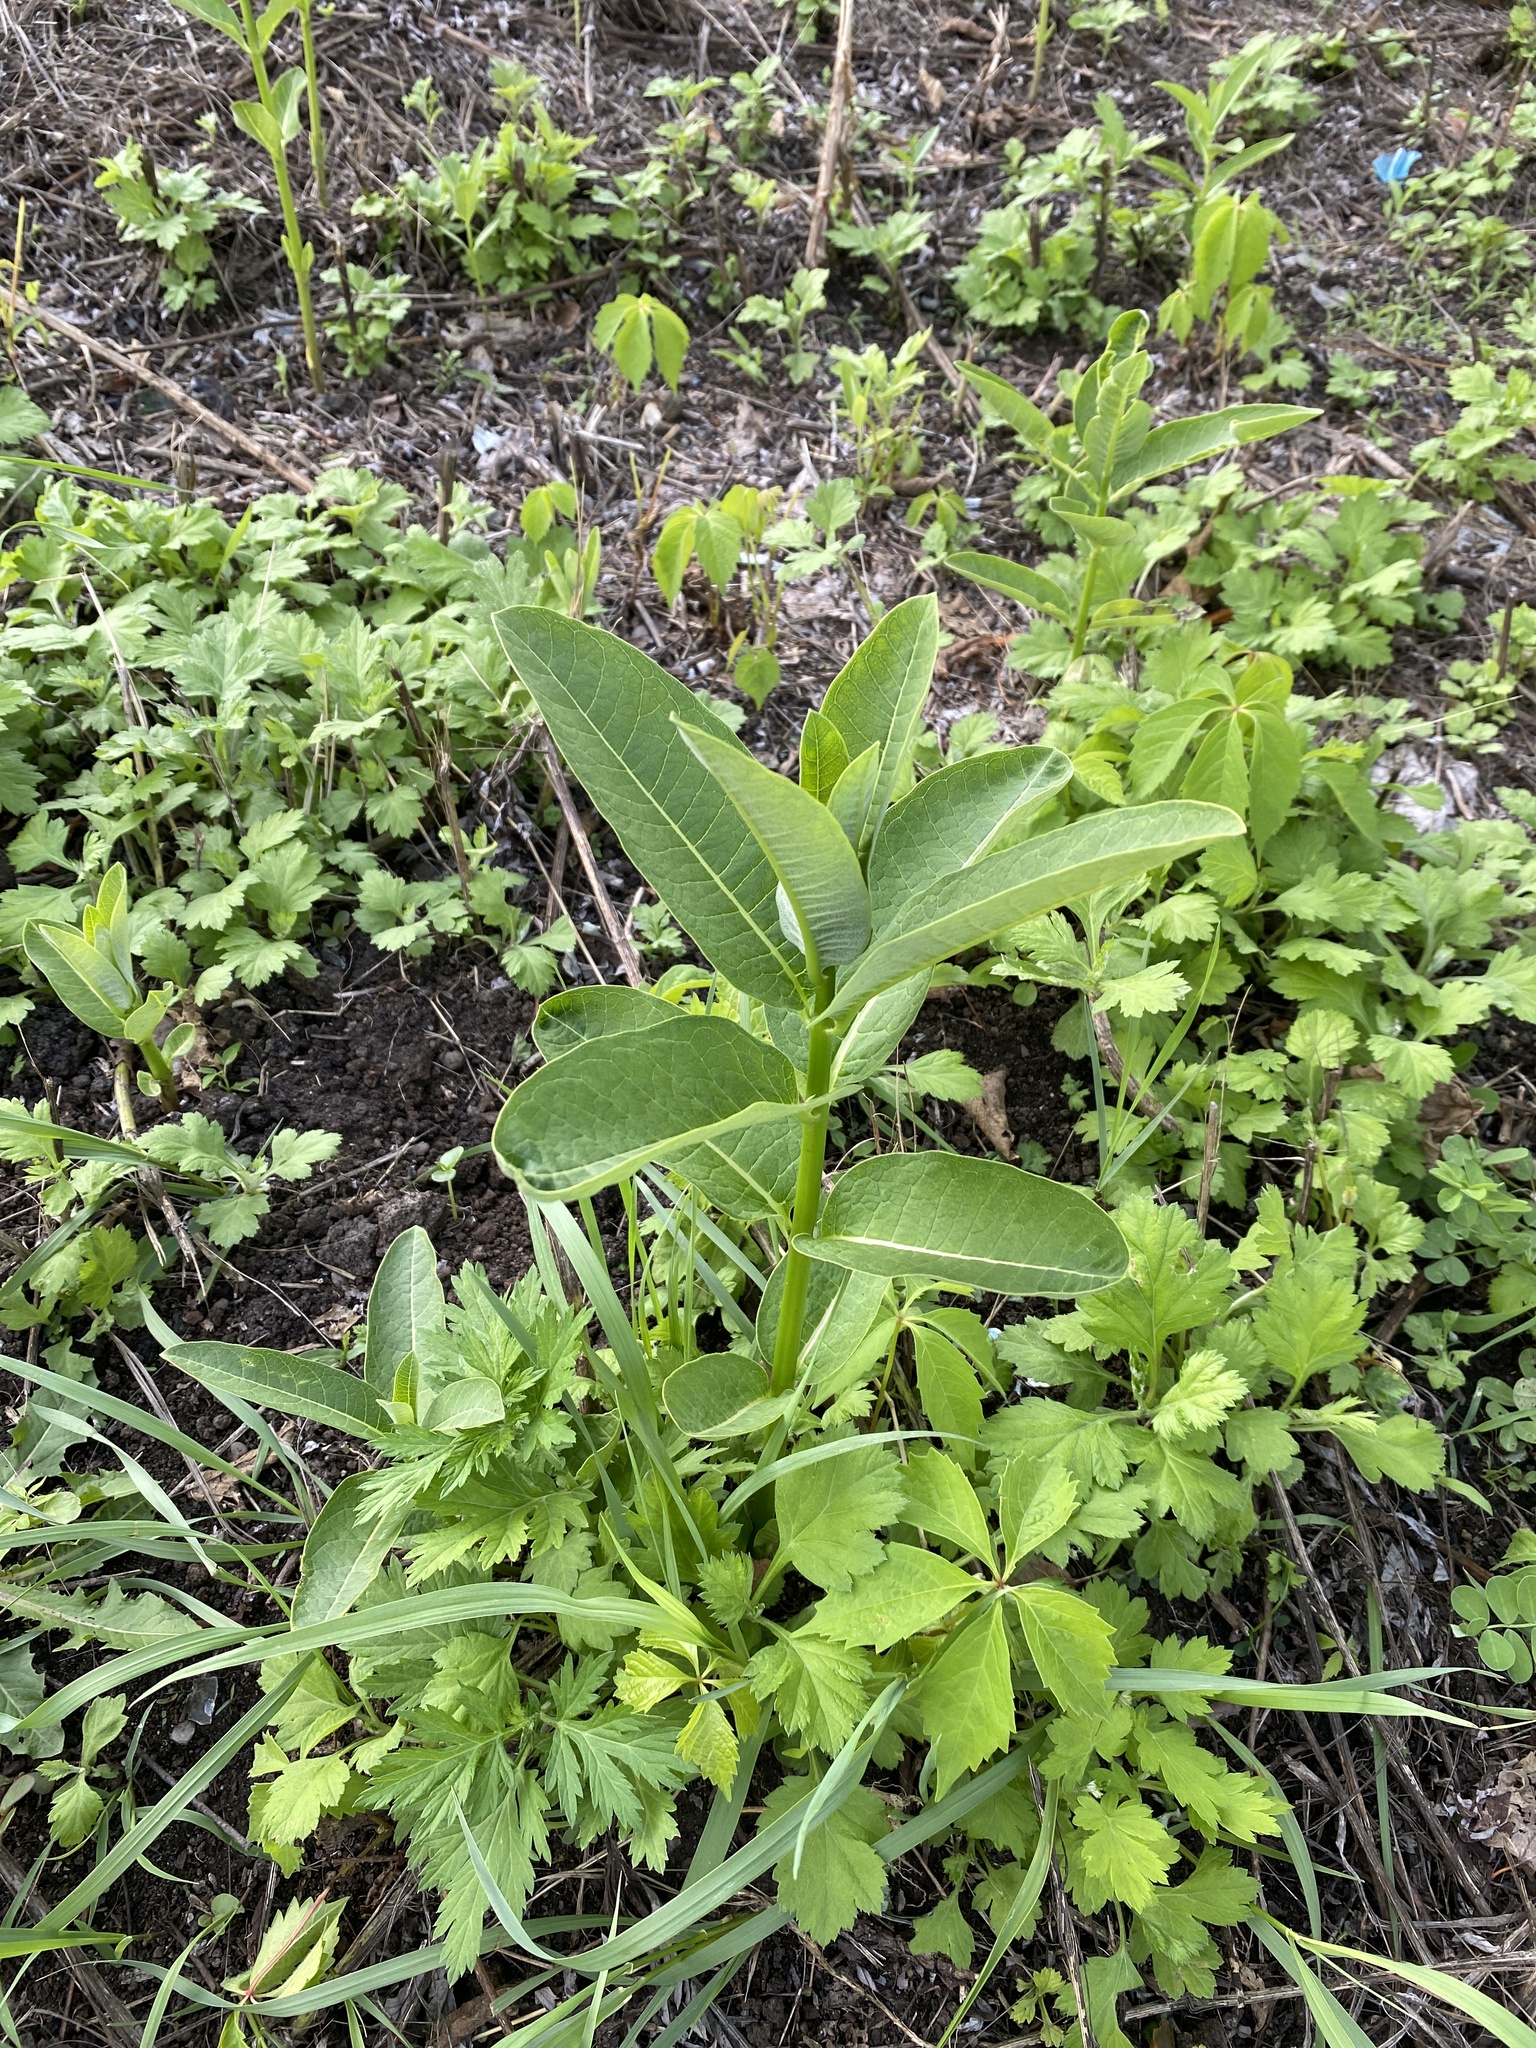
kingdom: Plantae
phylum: Tracheophyta
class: Magnoliopsida
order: Gentianales
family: Apocynaceae
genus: Asclepias
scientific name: Asclepias syriaca
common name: Common milkweed
